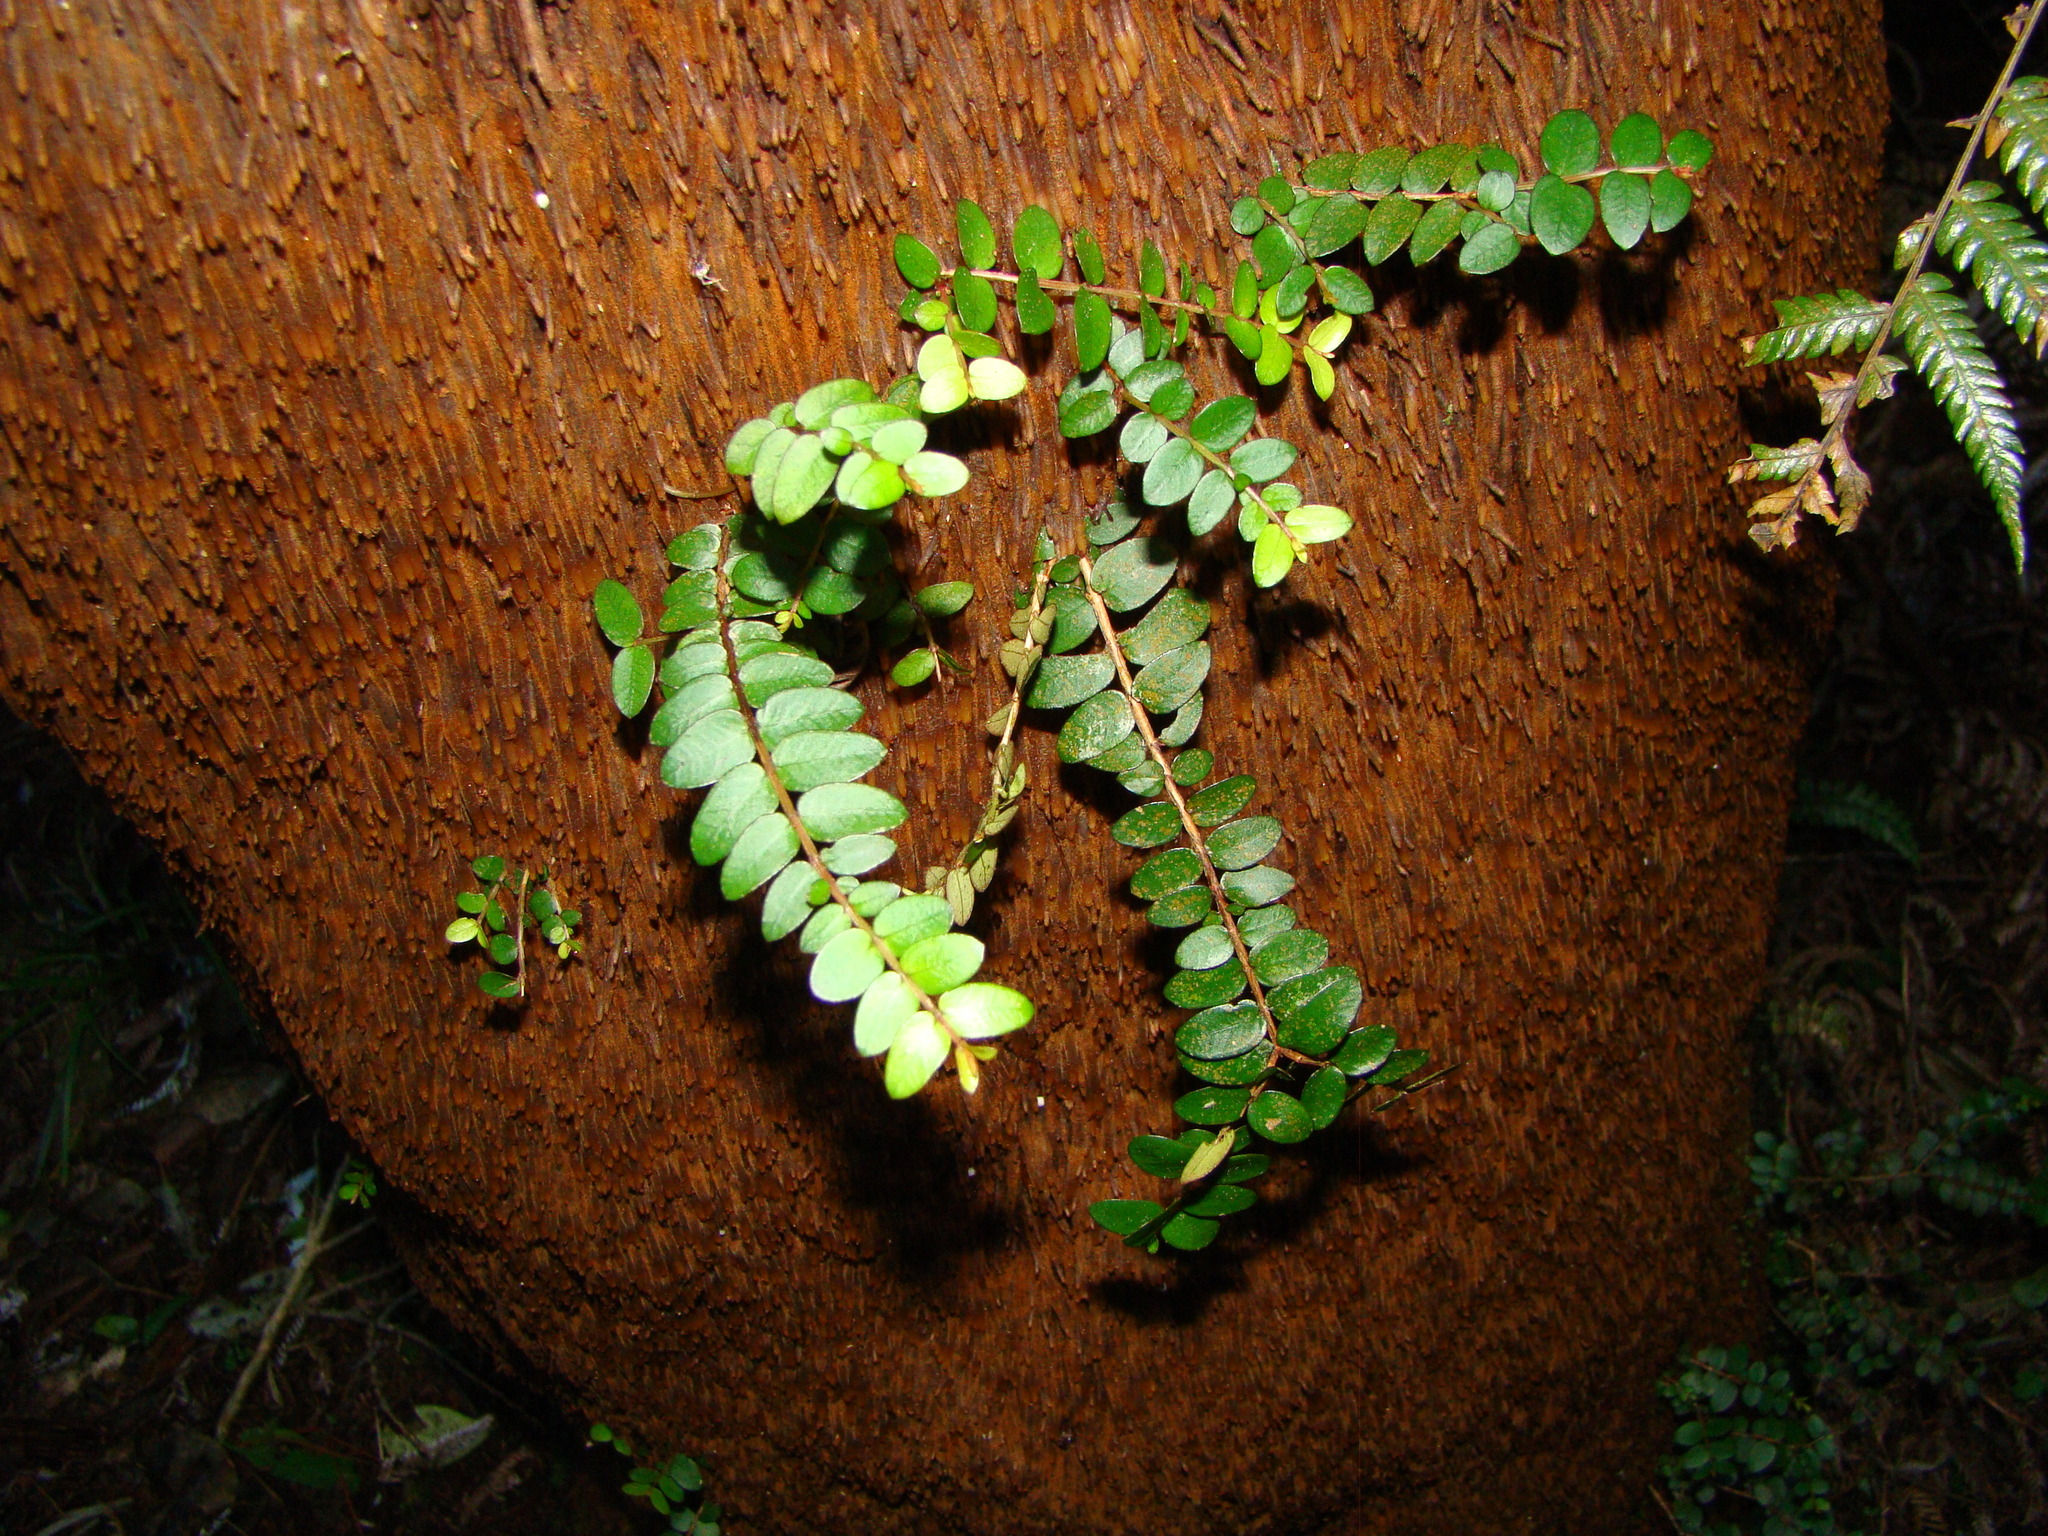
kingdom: Plantae
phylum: Tracheophyta
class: Magnoliopsida
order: Myrtales
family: Myrtaceae
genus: Metrosideros
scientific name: Metrosideros diffusa
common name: Small ratavine
